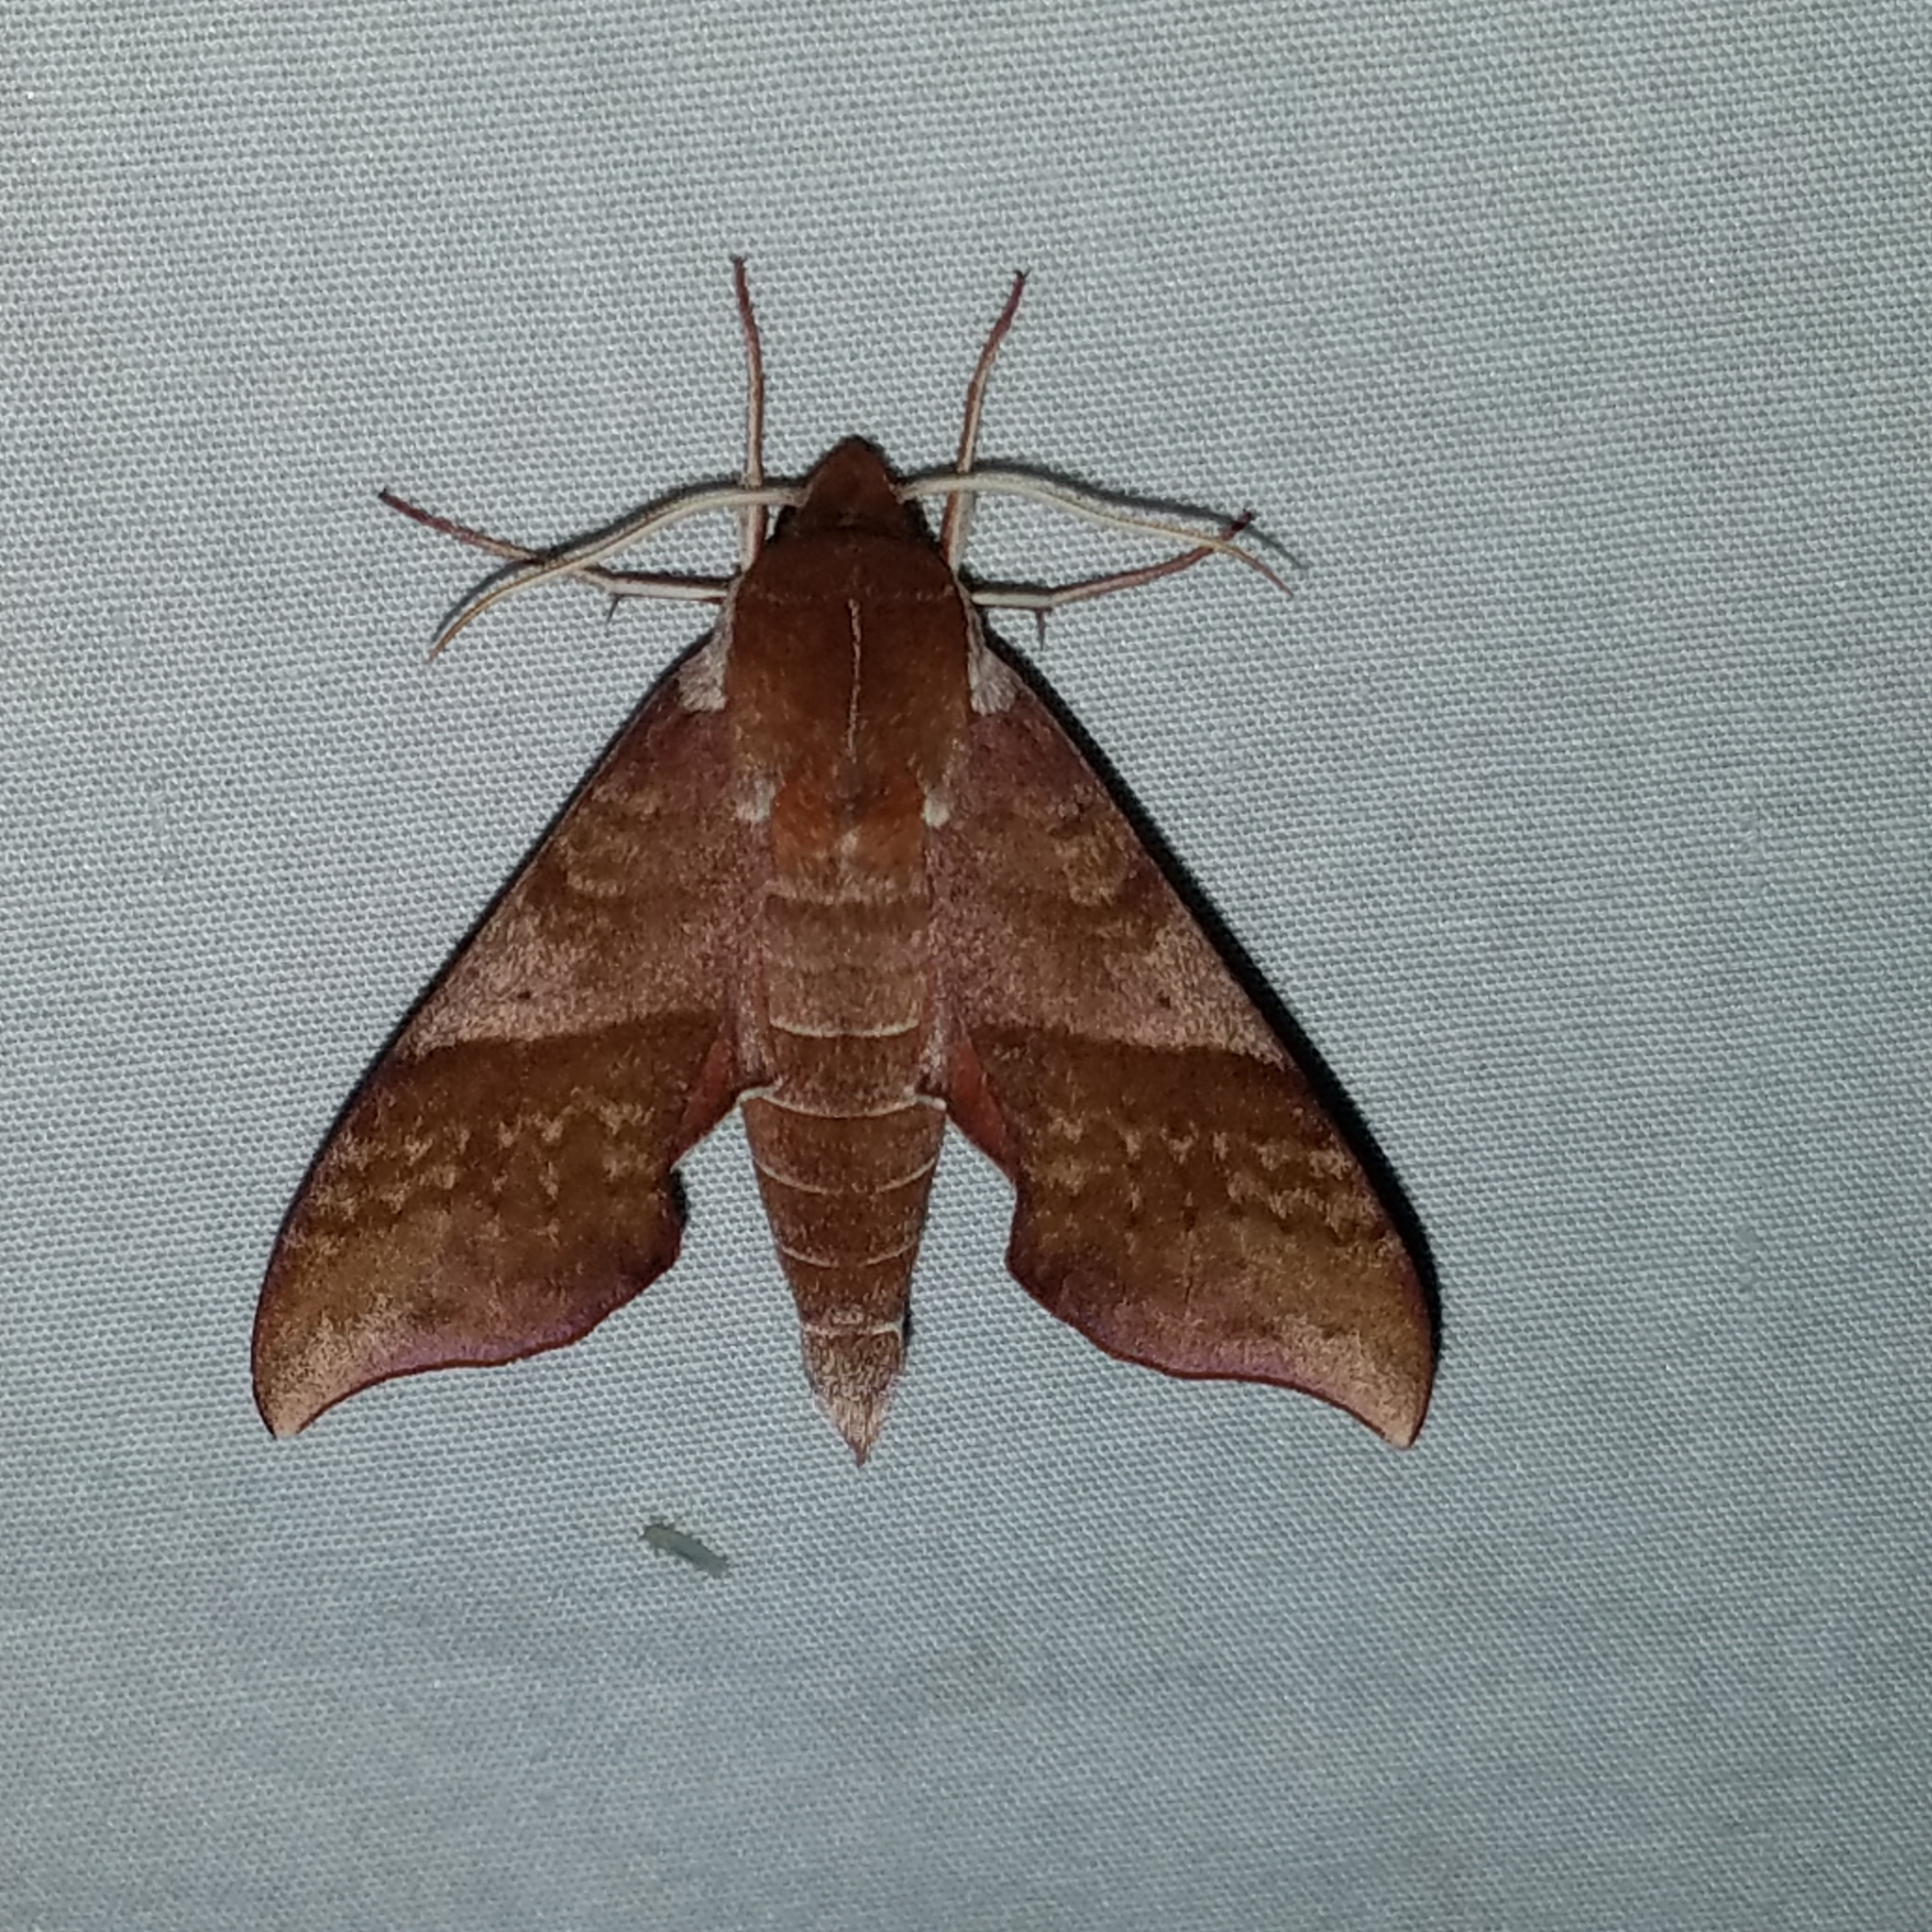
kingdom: Animalia
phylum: Arthropoda
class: Insecta
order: Lepidoptera
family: Sphingidae
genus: Darapsa
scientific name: Darapsa choerilus
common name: Azalea sphinx
